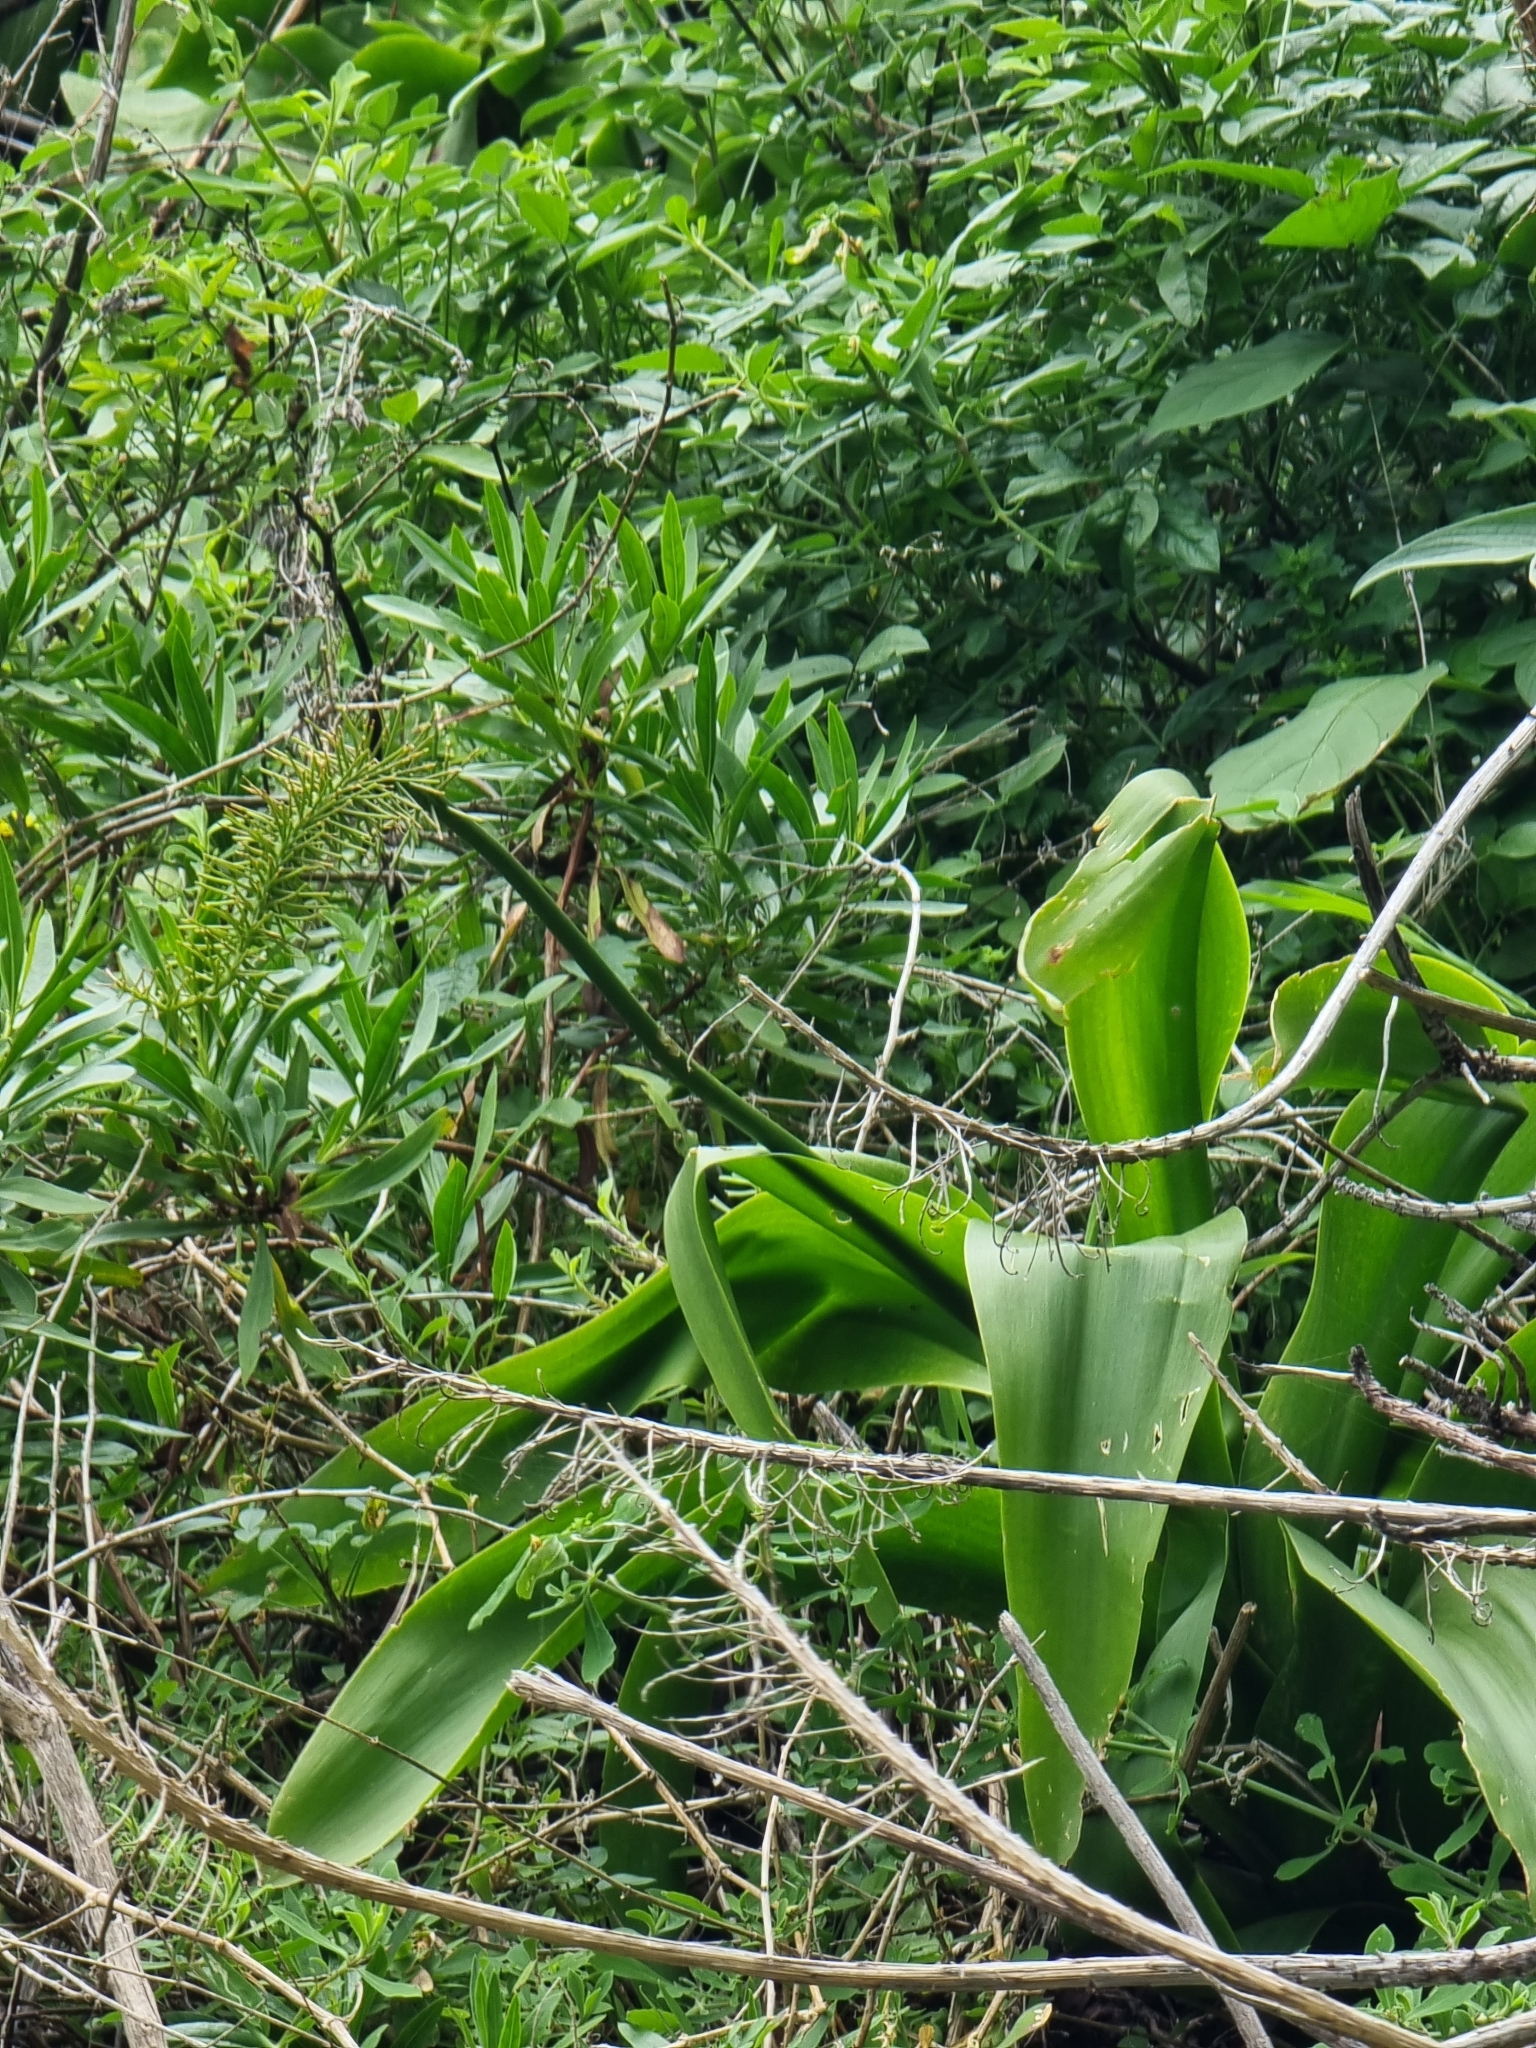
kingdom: Plantae
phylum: Tracheophyta
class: Liliopsida
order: Asparagales
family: Asparagaceae
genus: Scilla
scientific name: Scilla madeirensis
